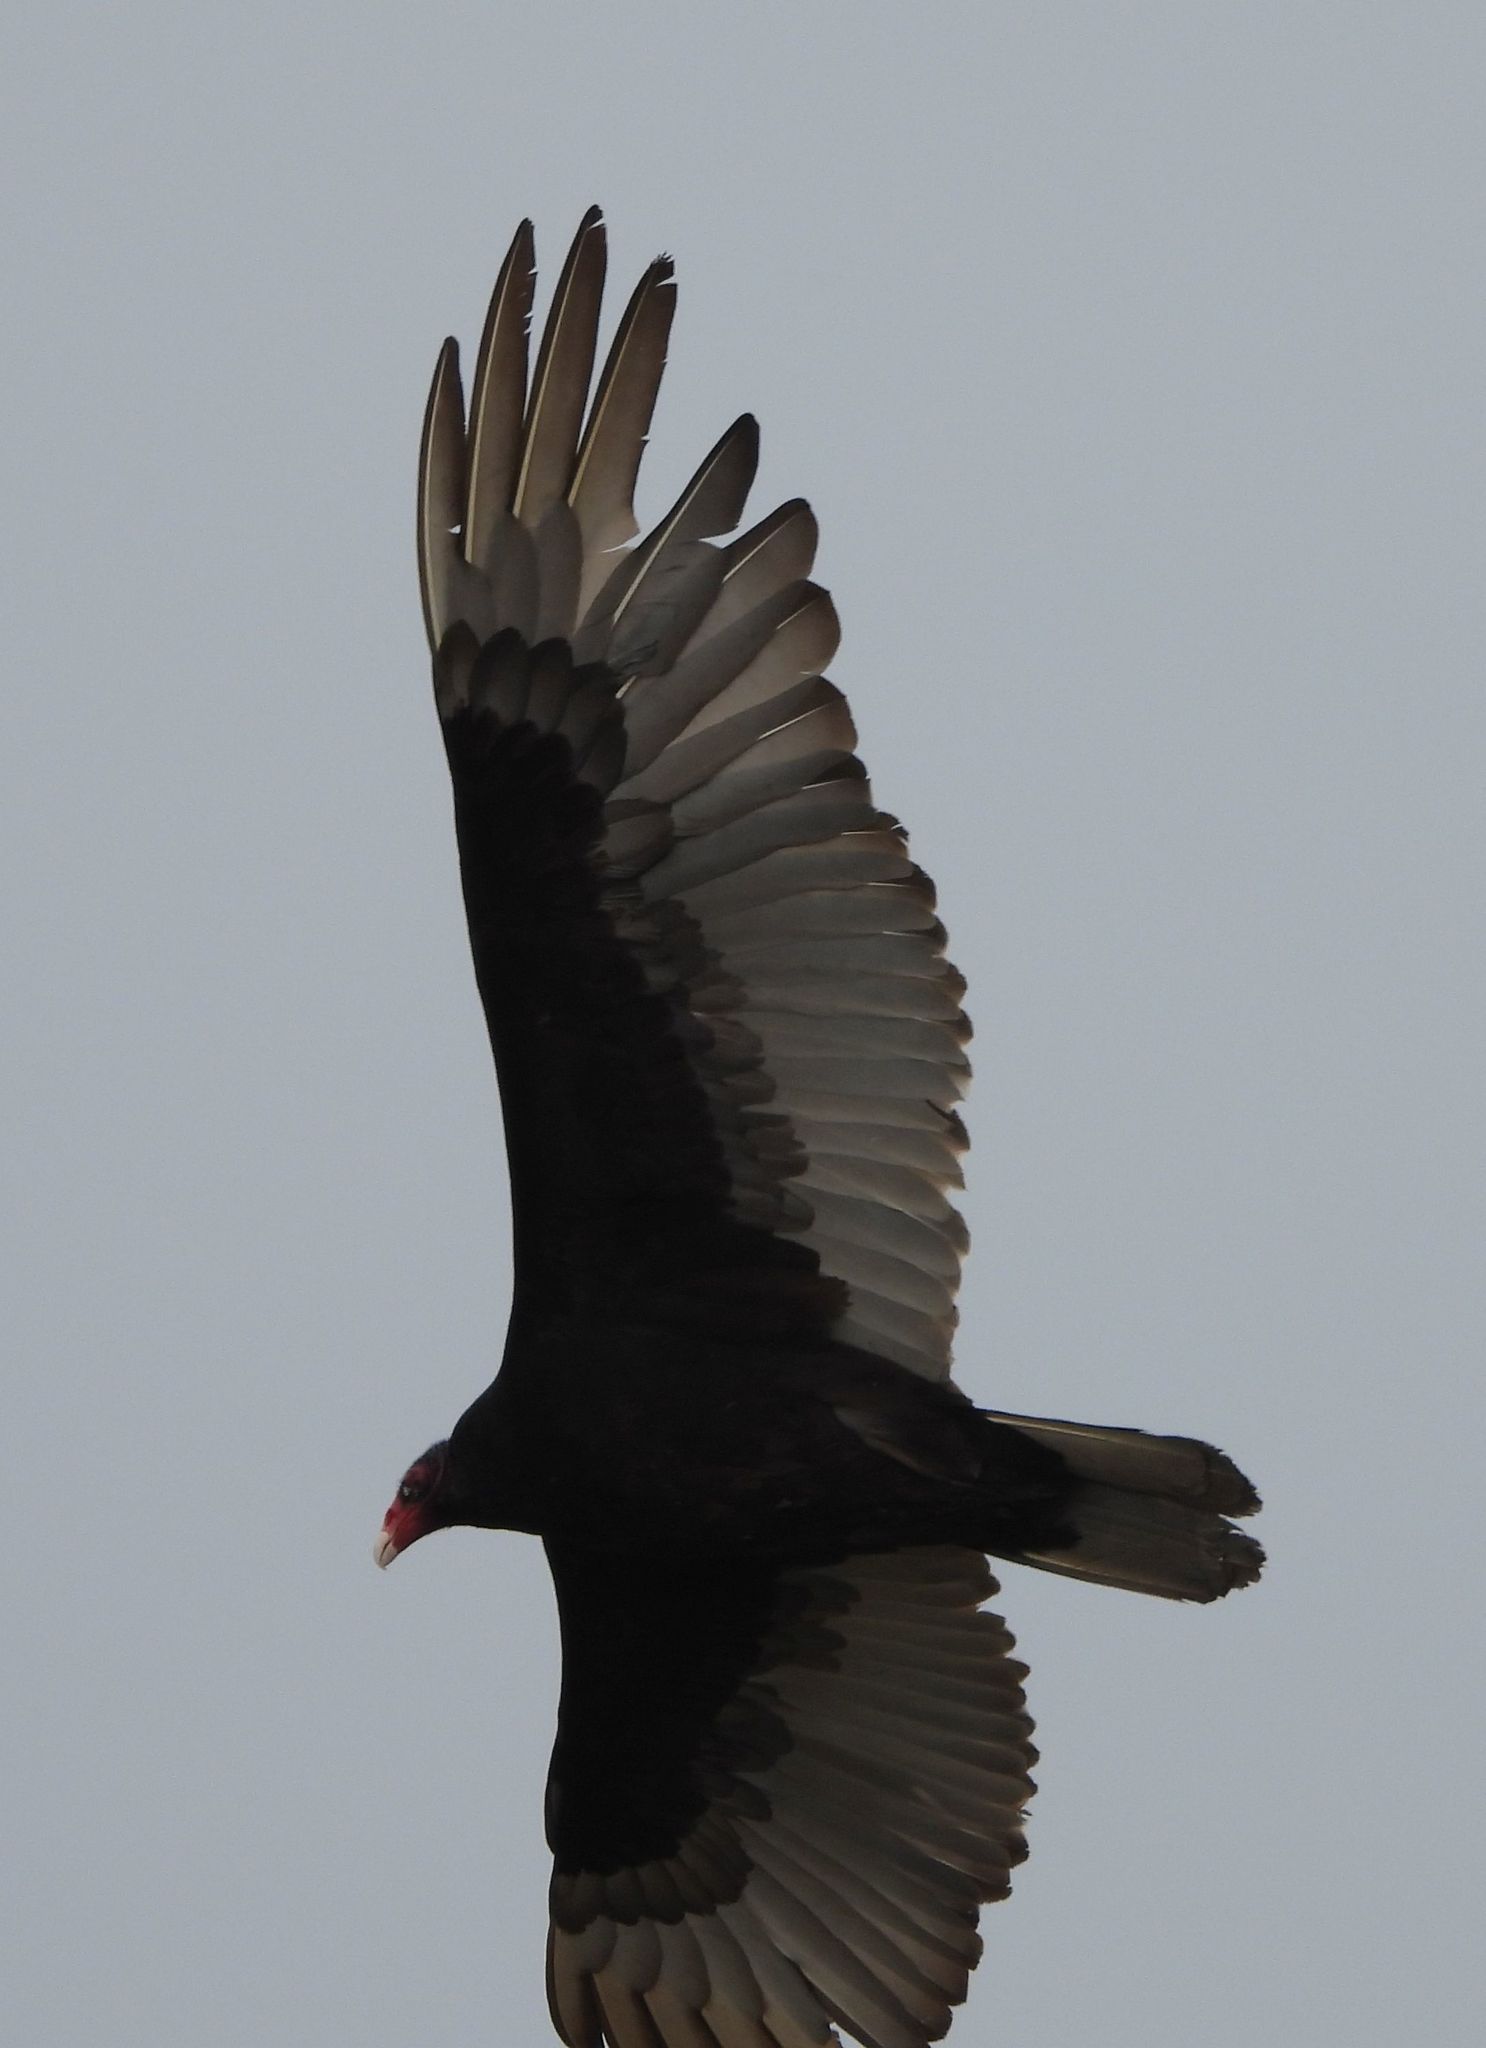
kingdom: Animalia
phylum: Chordata
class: Aves
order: Accipitriformes
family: Cathartidae
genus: Cathartes
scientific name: Cathartes aura
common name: Turkey vulture
